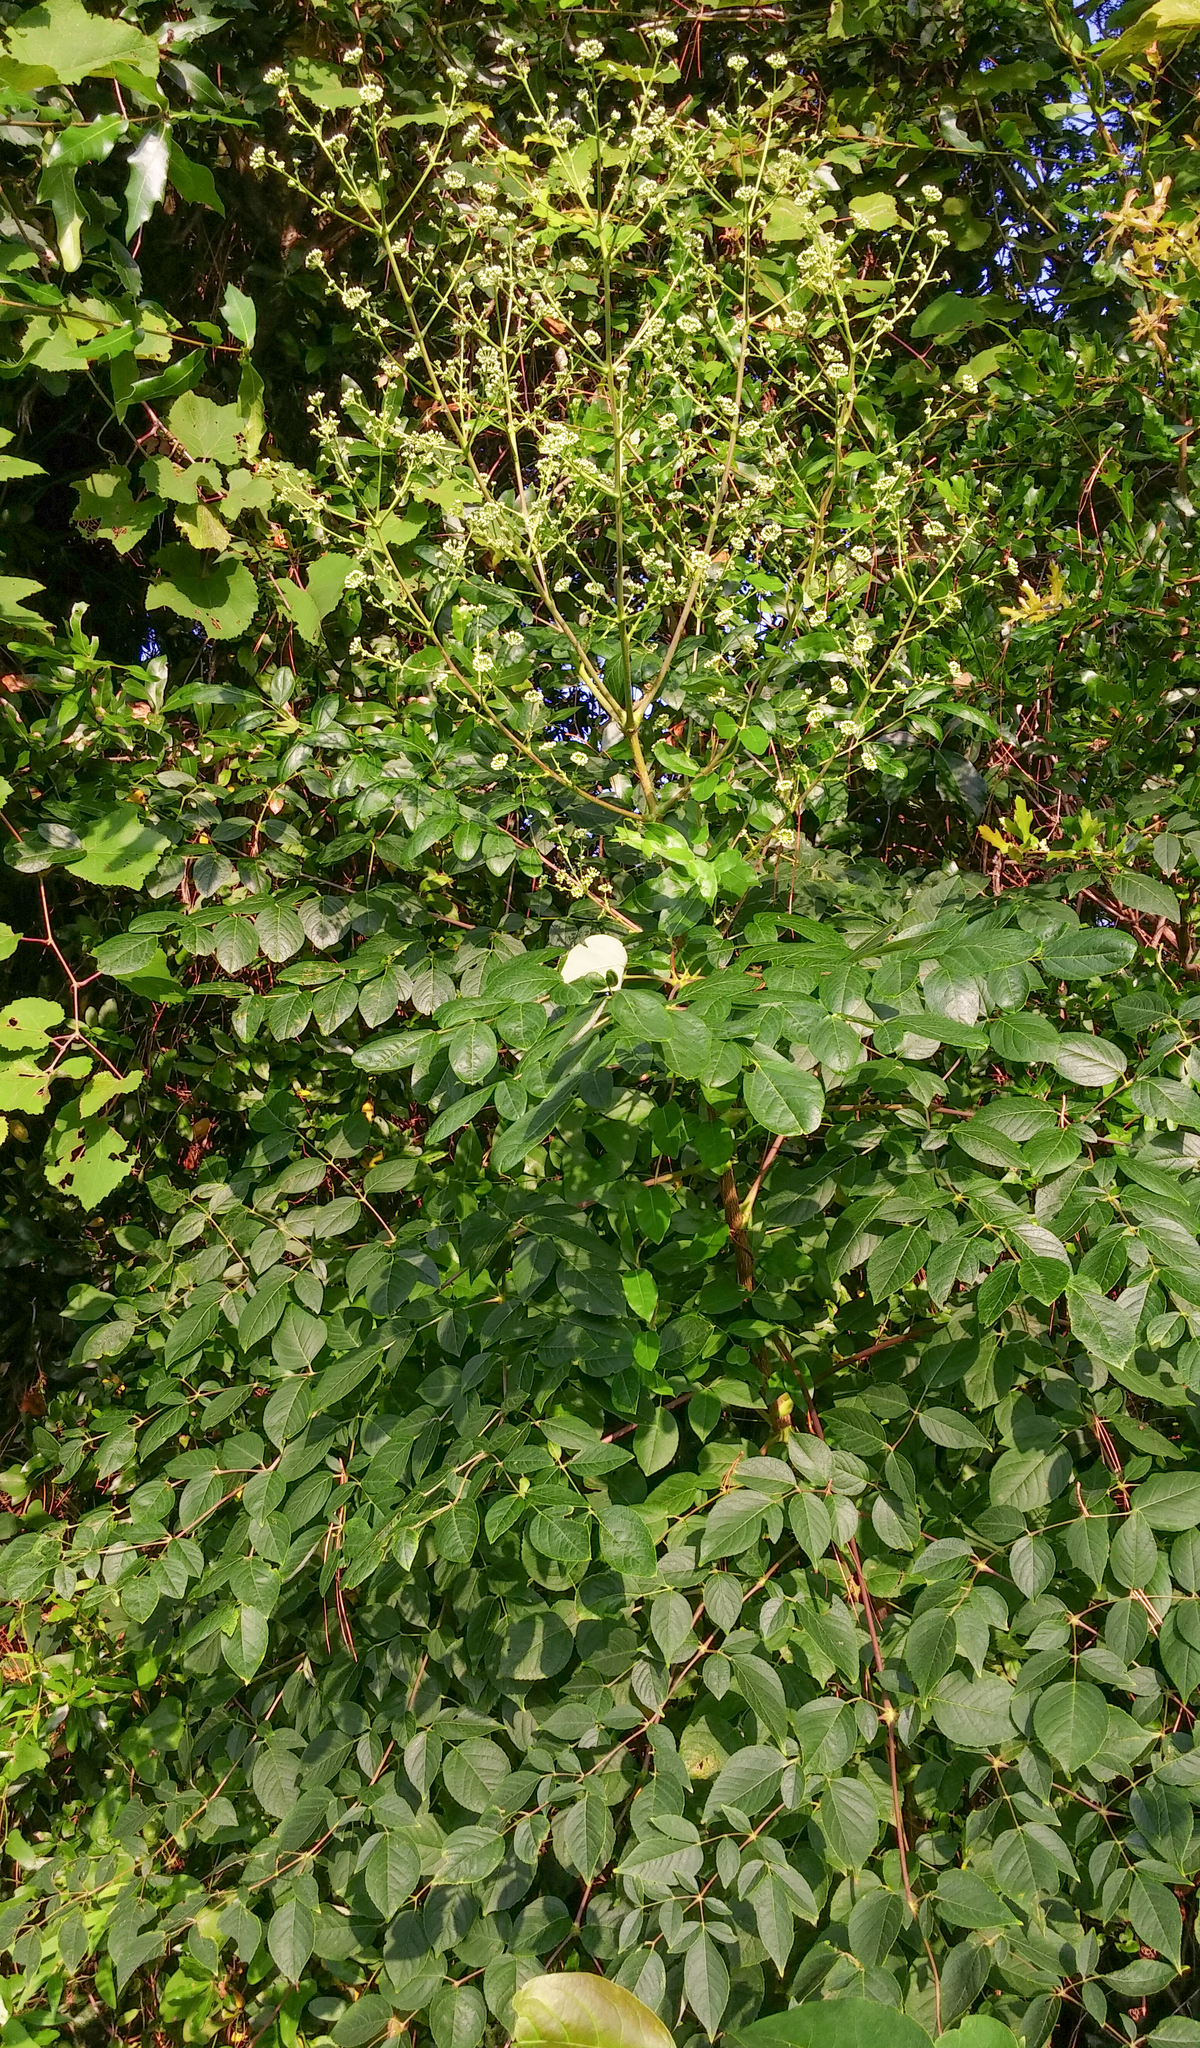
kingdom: Plantae
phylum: Tracheophyta
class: Magnoliopsida
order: Apiales
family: Araliaceae
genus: Aralia
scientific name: Aralia spinosa
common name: Hercules'-club
